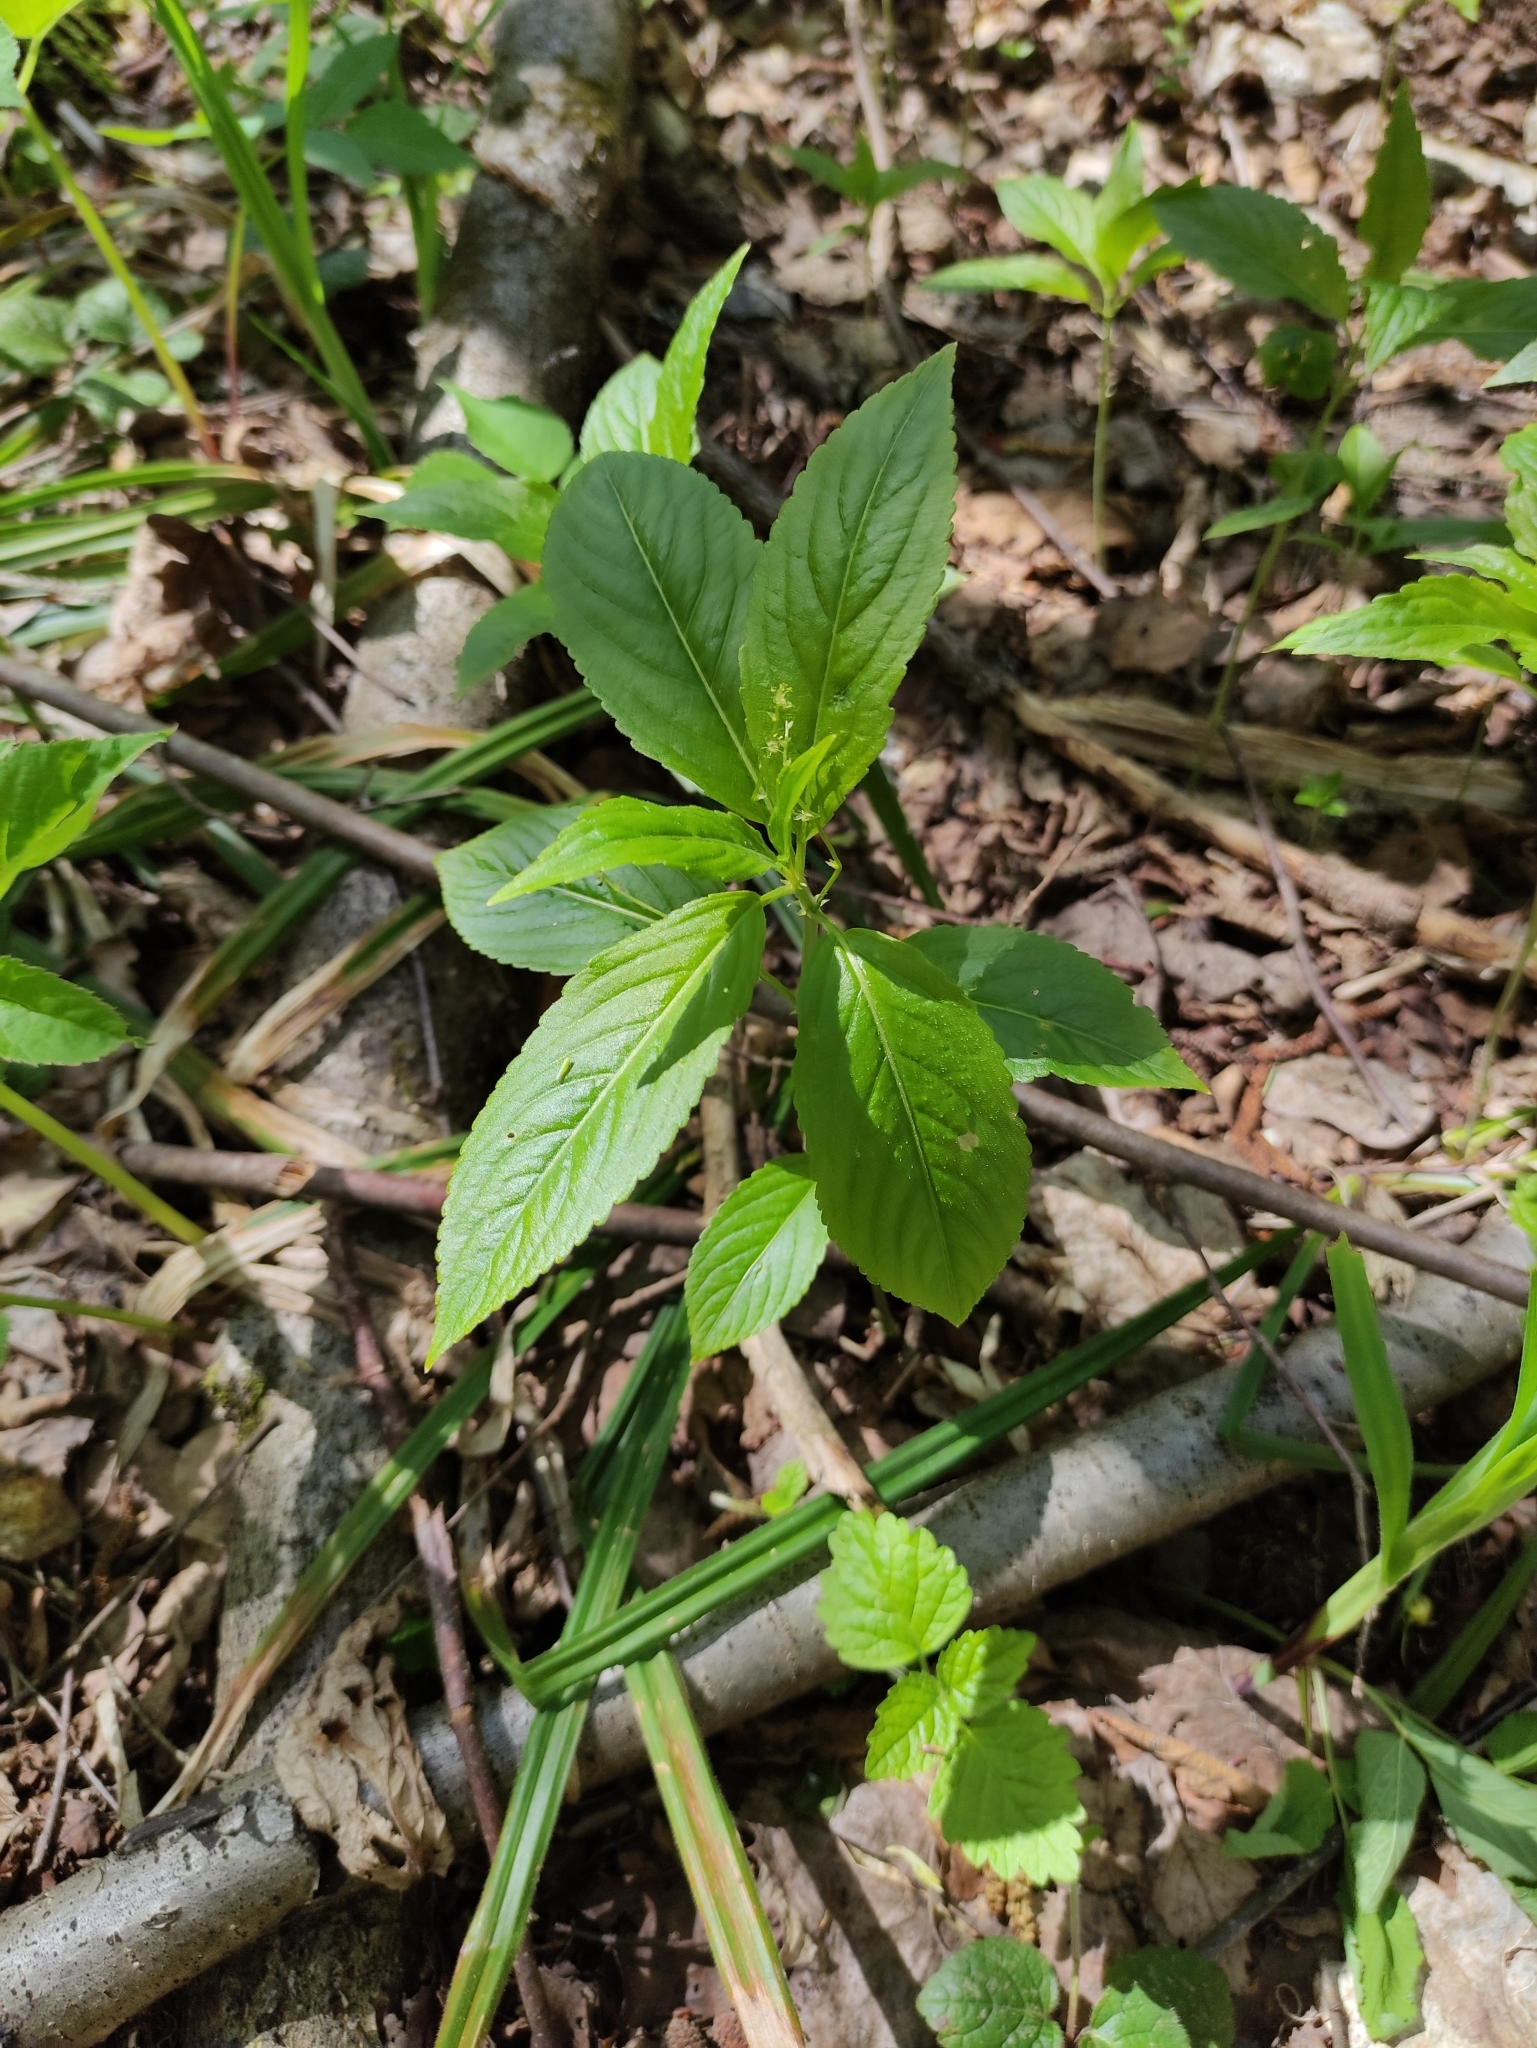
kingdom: Plantae
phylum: Tracheophyta
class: Magnoliopsida
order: Malpighiales
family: Euphorbiaceae
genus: Mercurialis
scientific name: Mercurialis perennis
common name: Dog mercury
